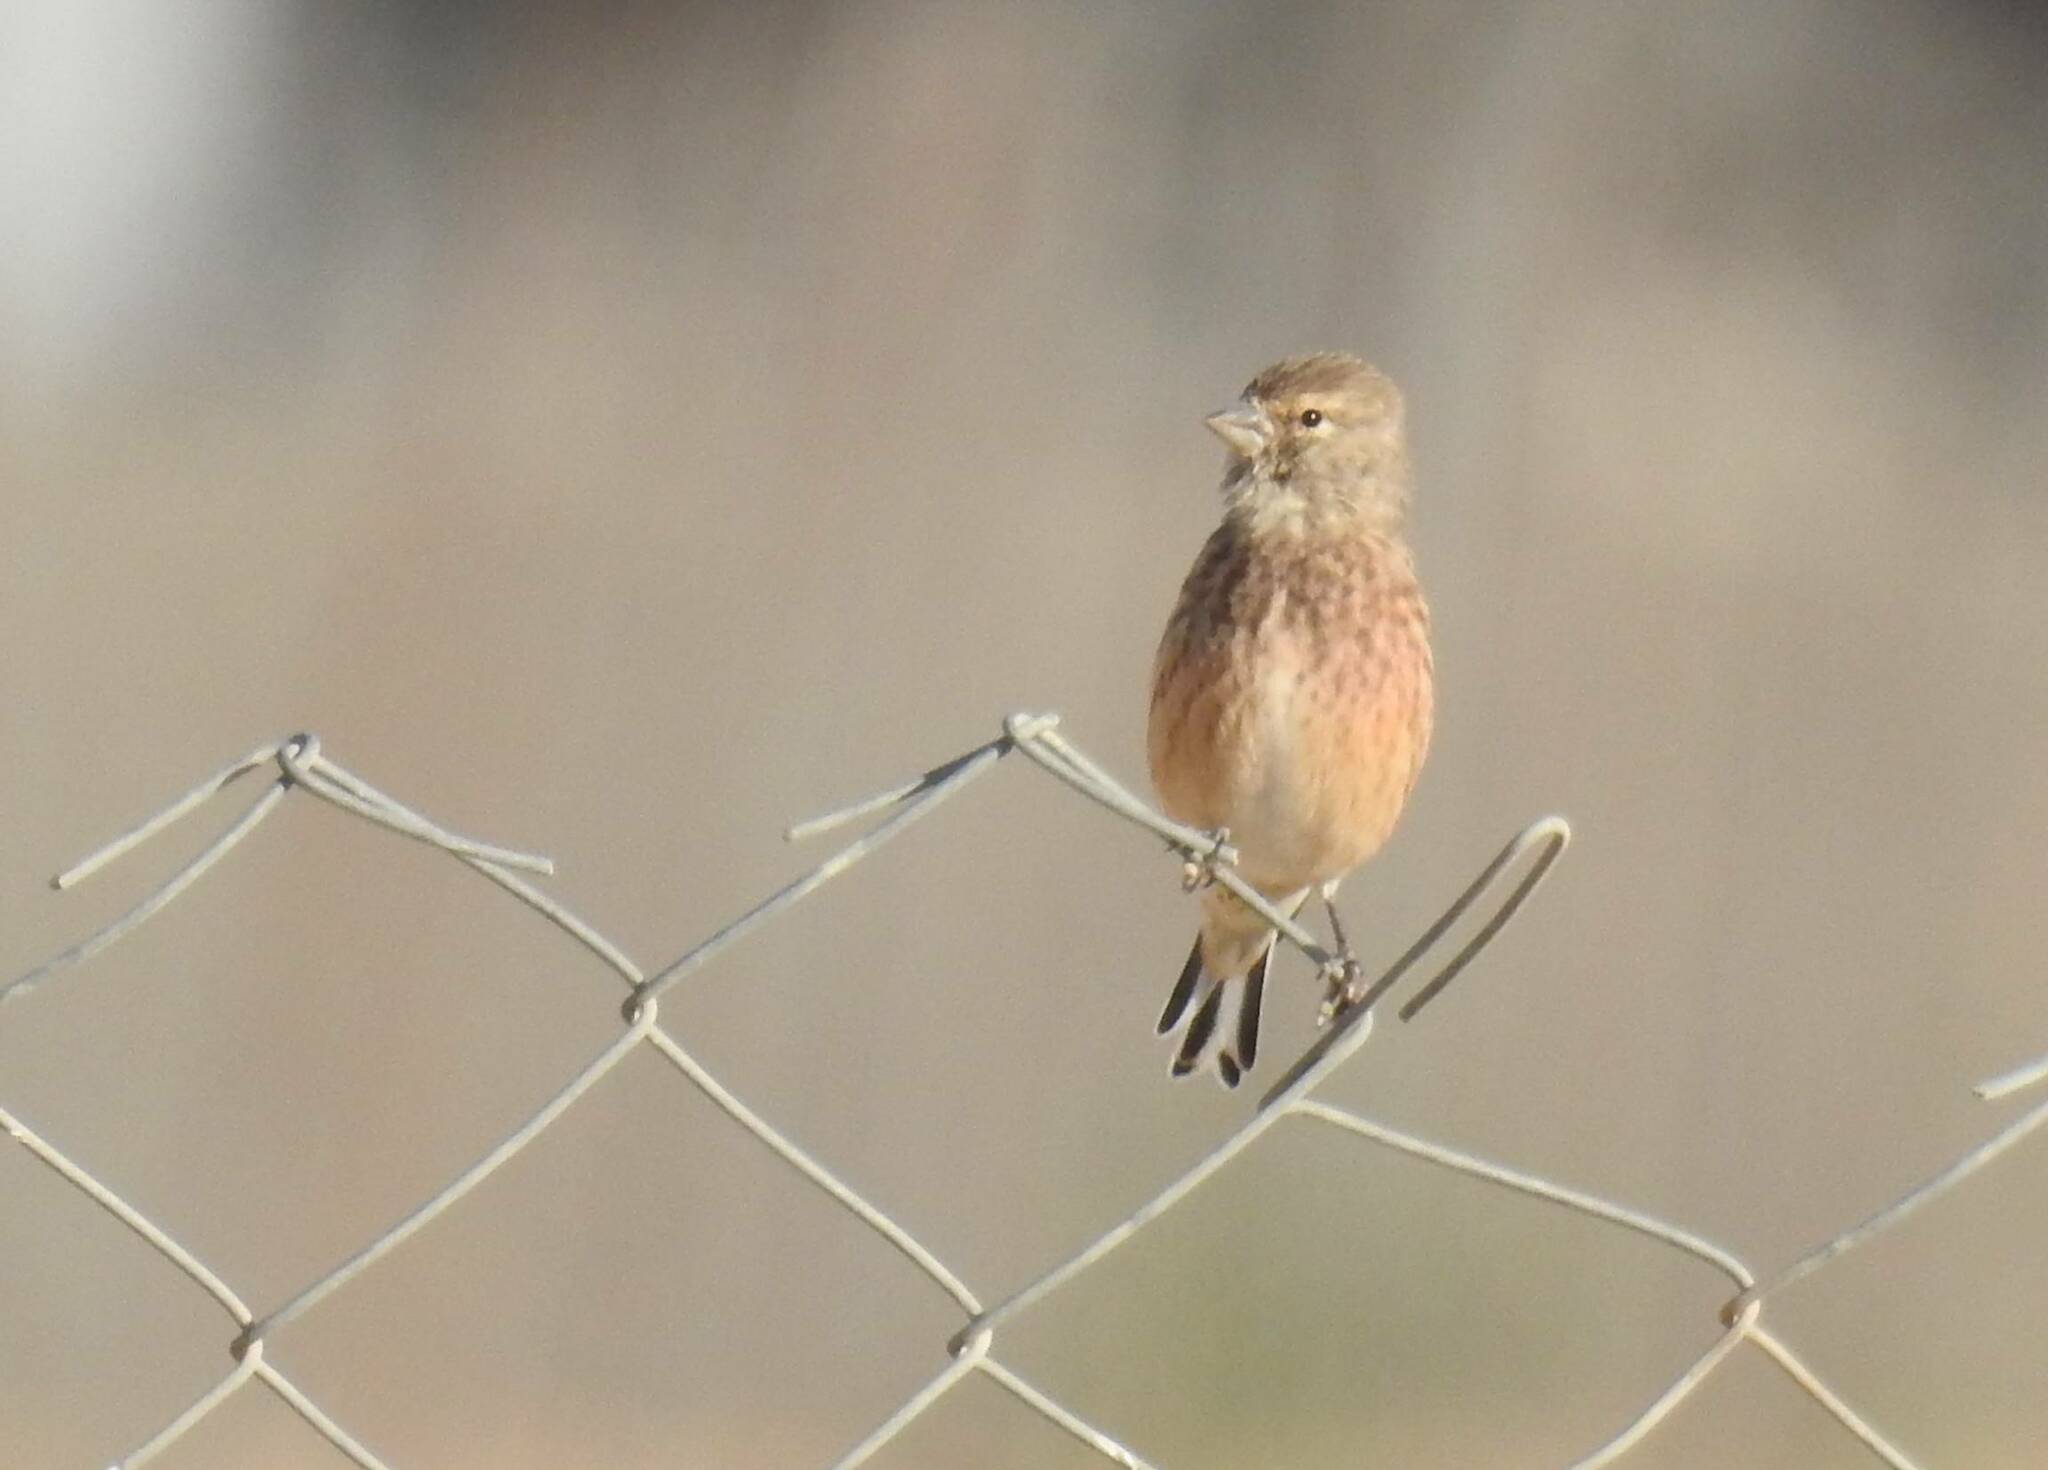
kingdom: Animalia
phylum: Chordata
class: Aves
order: Passeriformes
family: Fringillidae
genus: Linaria
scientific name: Linaria cannabina
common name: Common linnet
